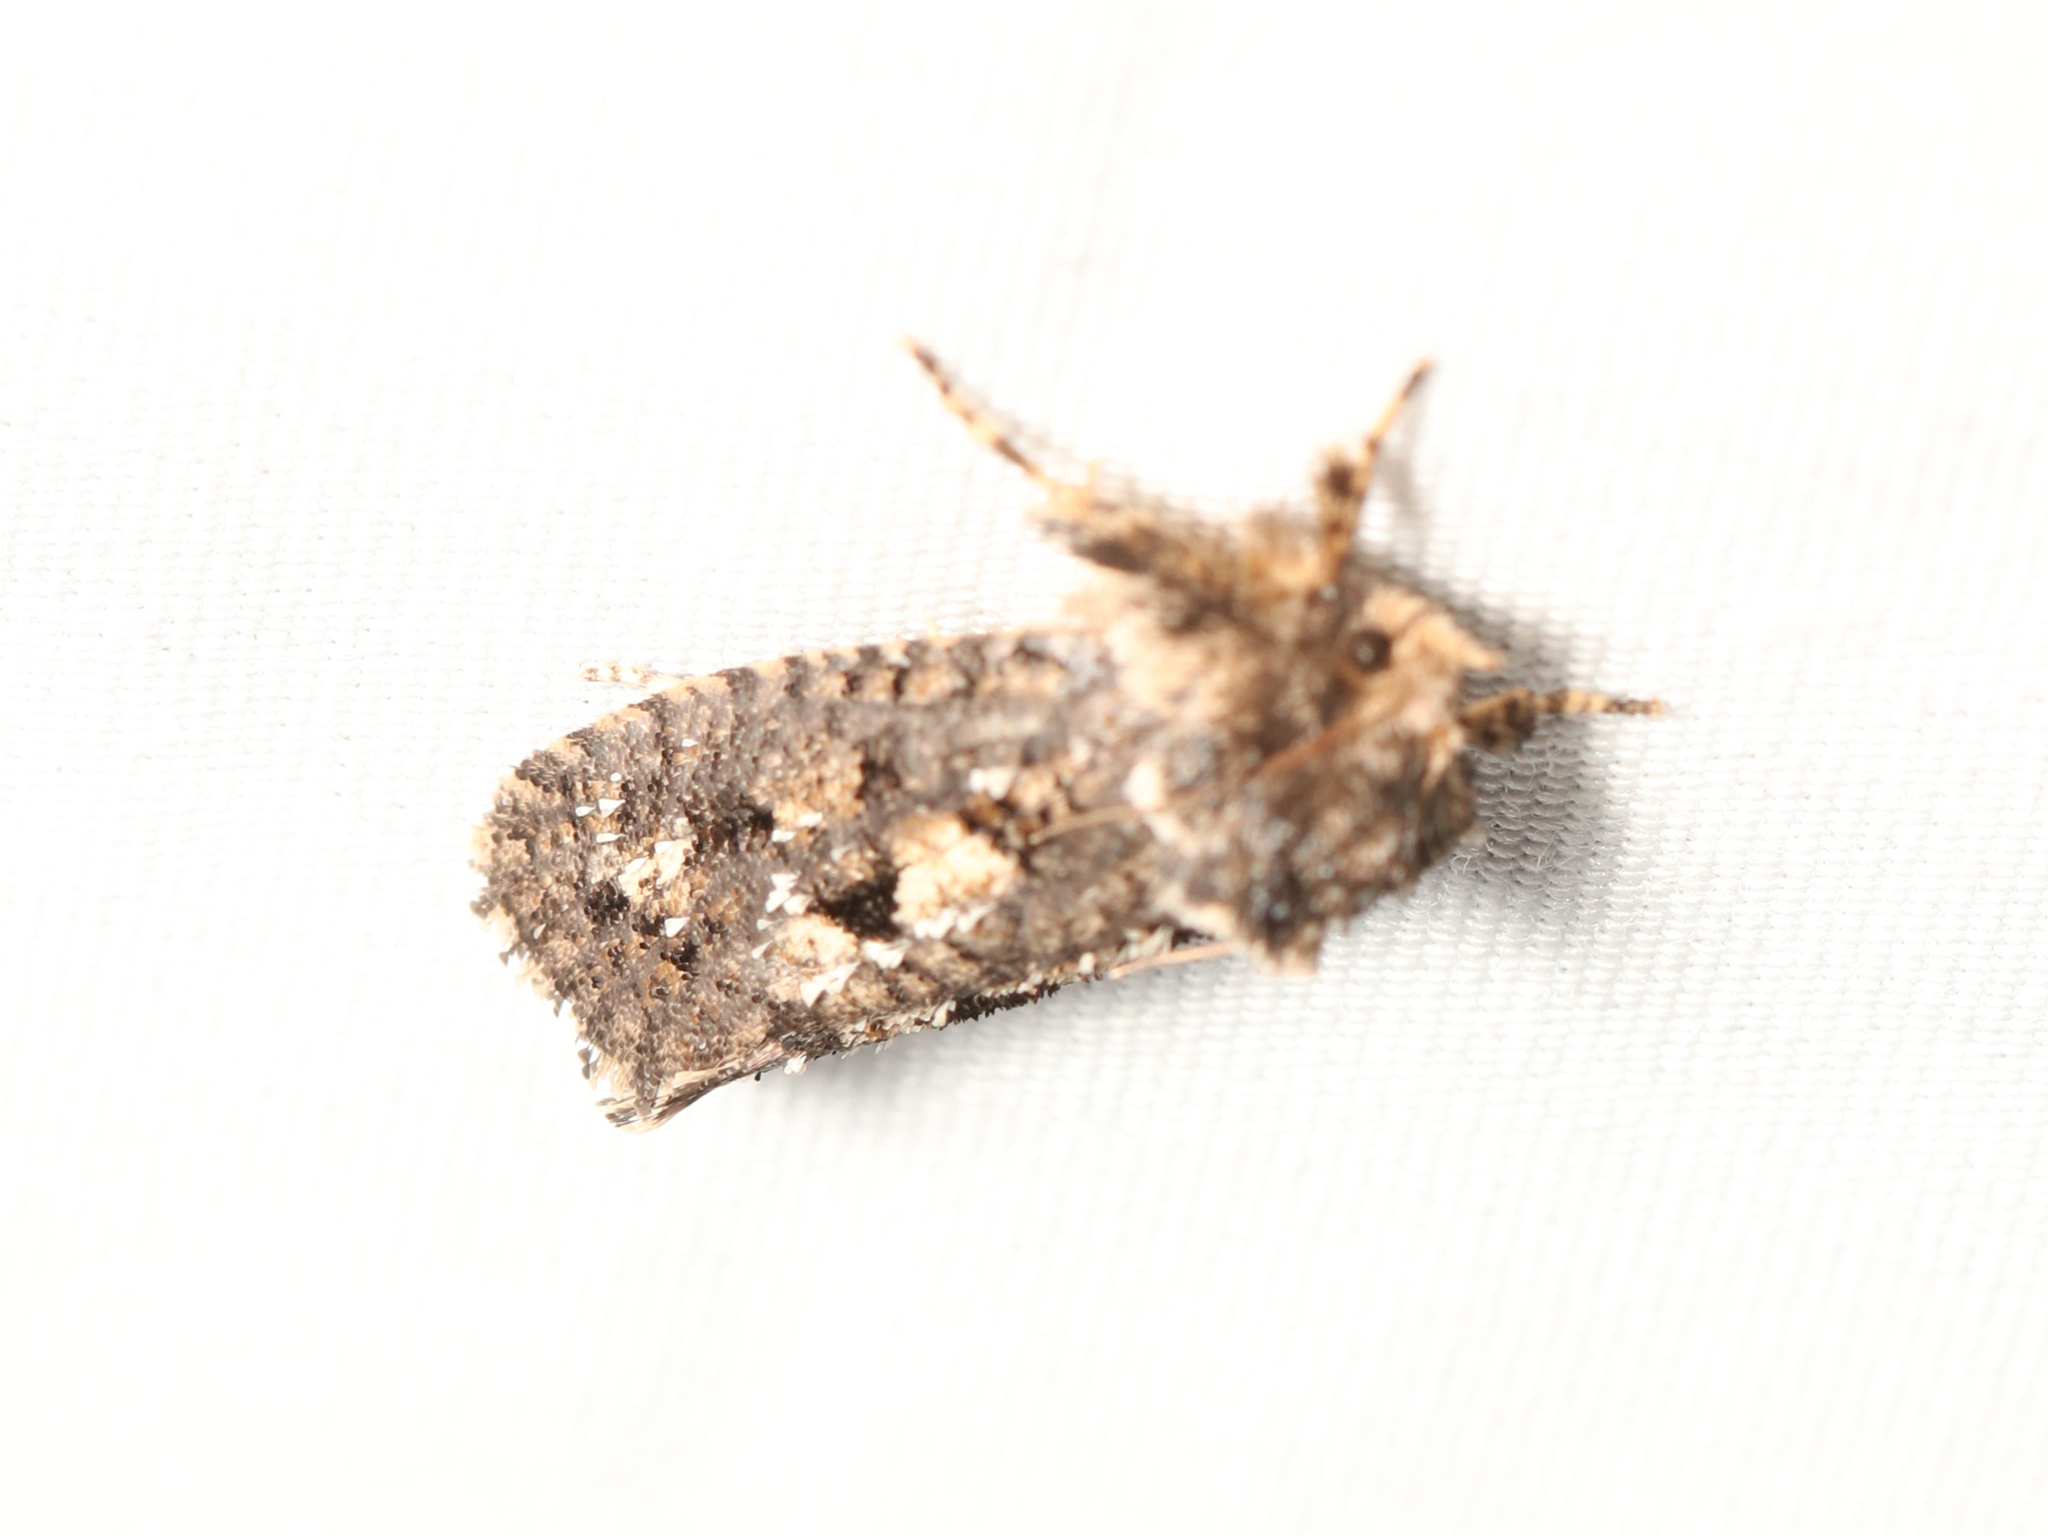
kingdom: Animalia
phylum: Arthropoda
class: Insecta
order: Lepidoptera
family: Tineidae
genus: Acrolophus
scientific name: Acrolophus arcanella
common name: Arcane grass tubeworm moth
